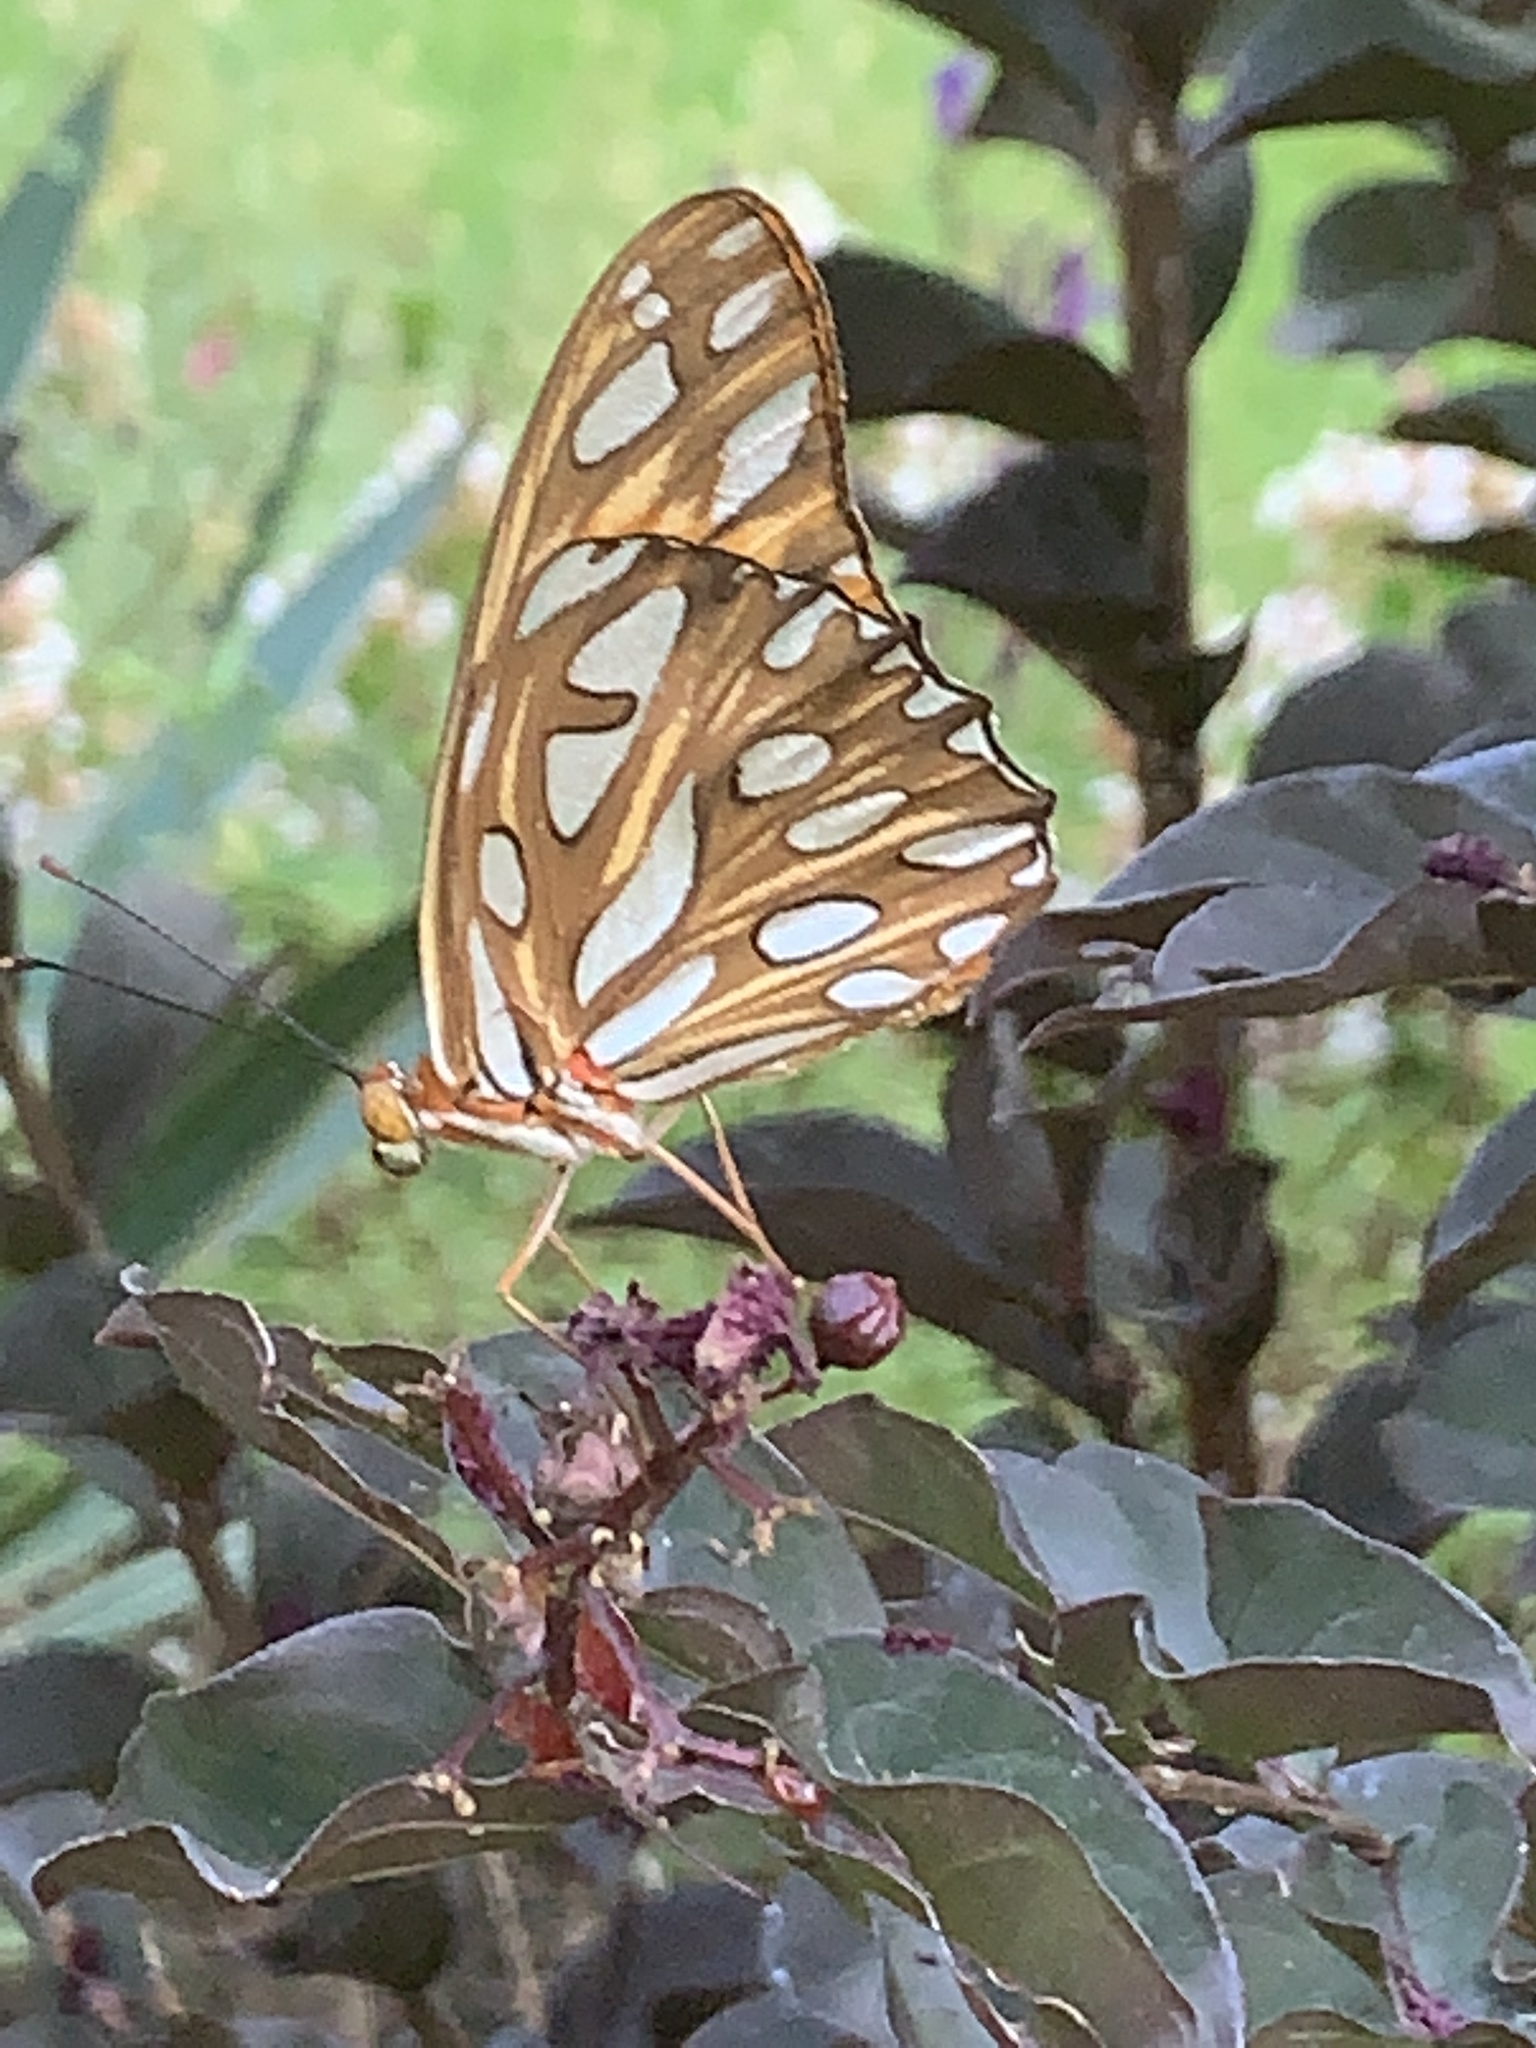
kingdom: Animalia
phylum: Arthropoda
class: Insecta
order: Lepidoptera
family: Nymphalidae
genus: Dione
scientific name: Dione vanillae
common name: Gulf fritillary
